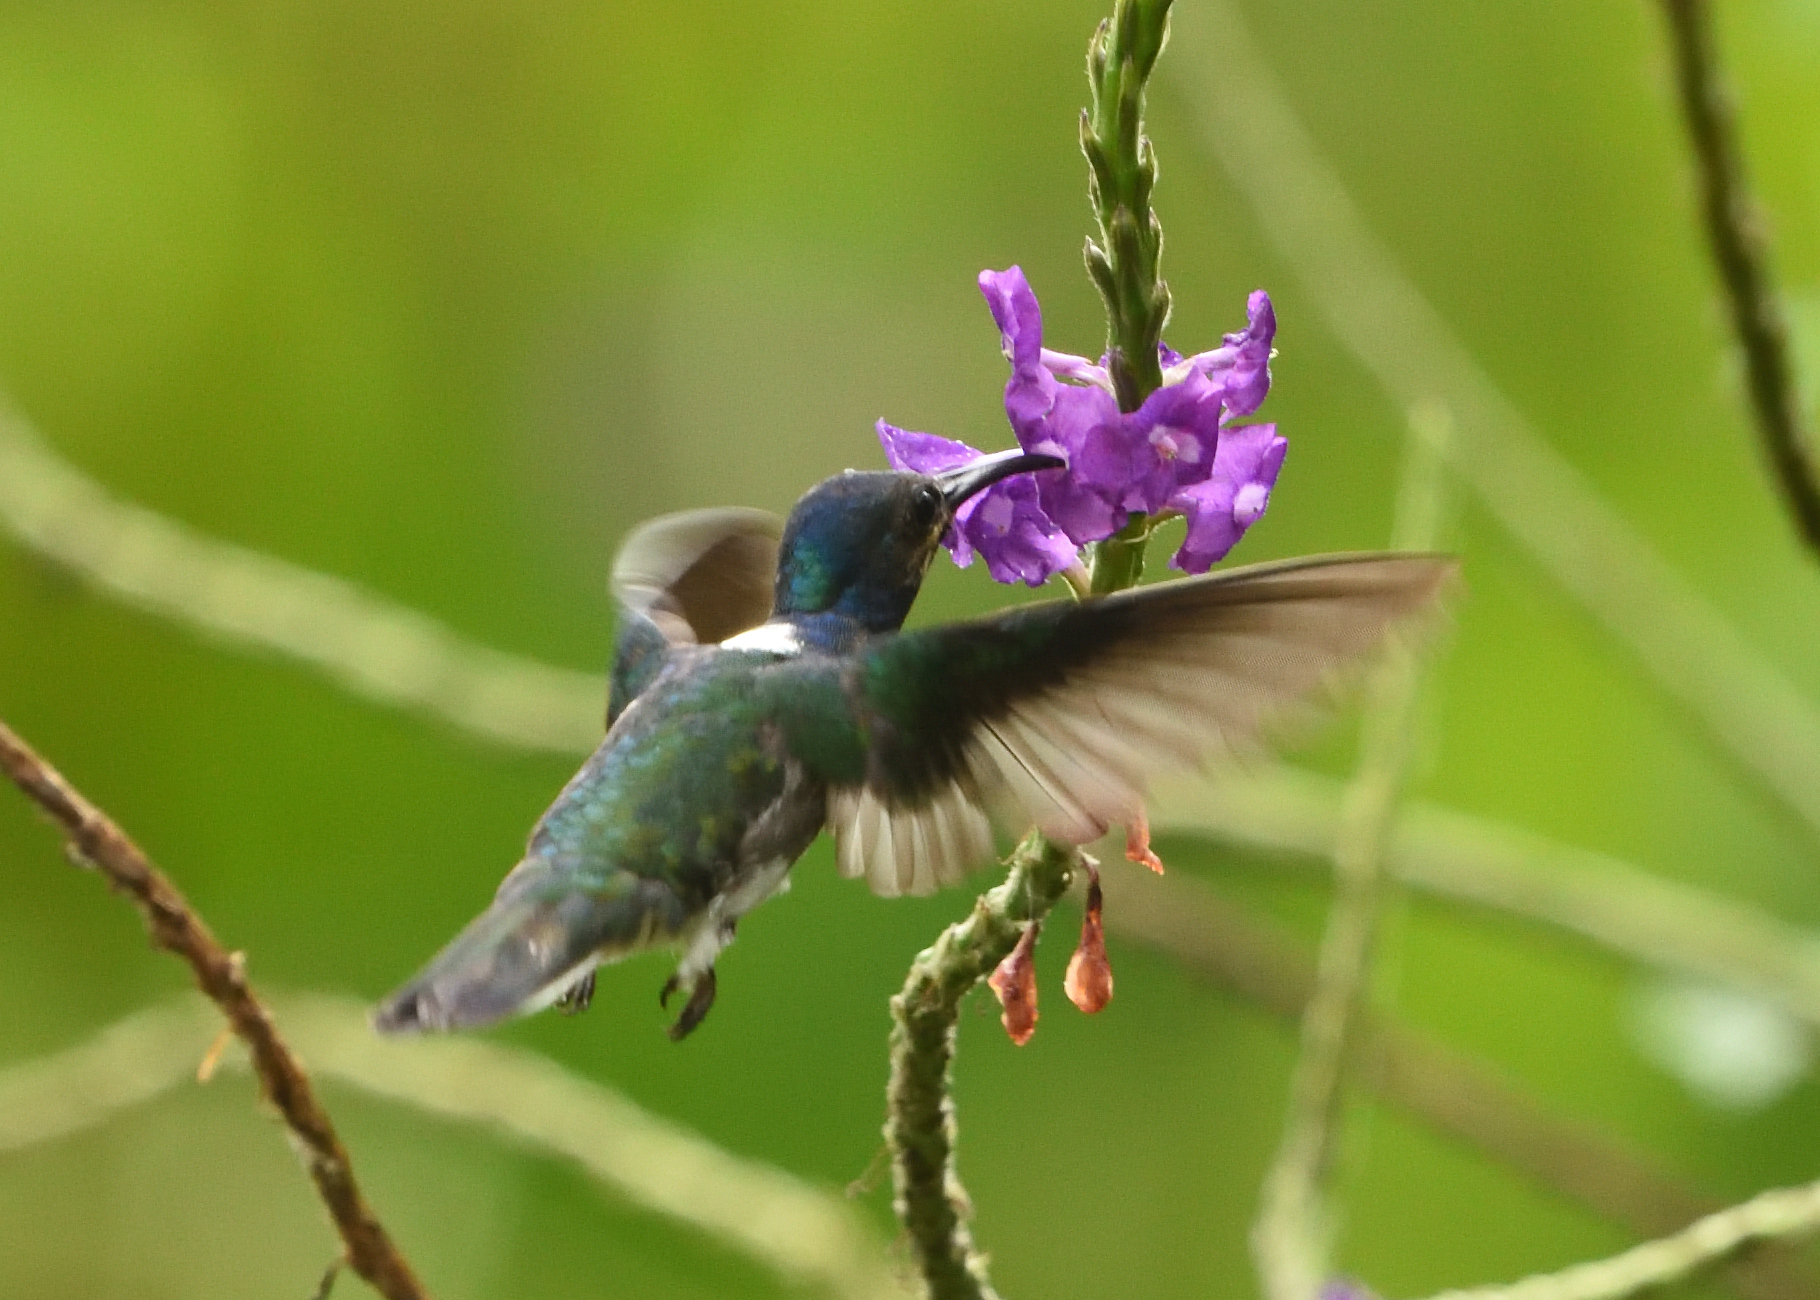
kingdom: Animalia
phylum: Chordata
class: Aves
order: Apodiformes
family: Trochilidae
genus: Florisuga
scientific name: Florisuga mellivora
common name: White-necked jacobin
